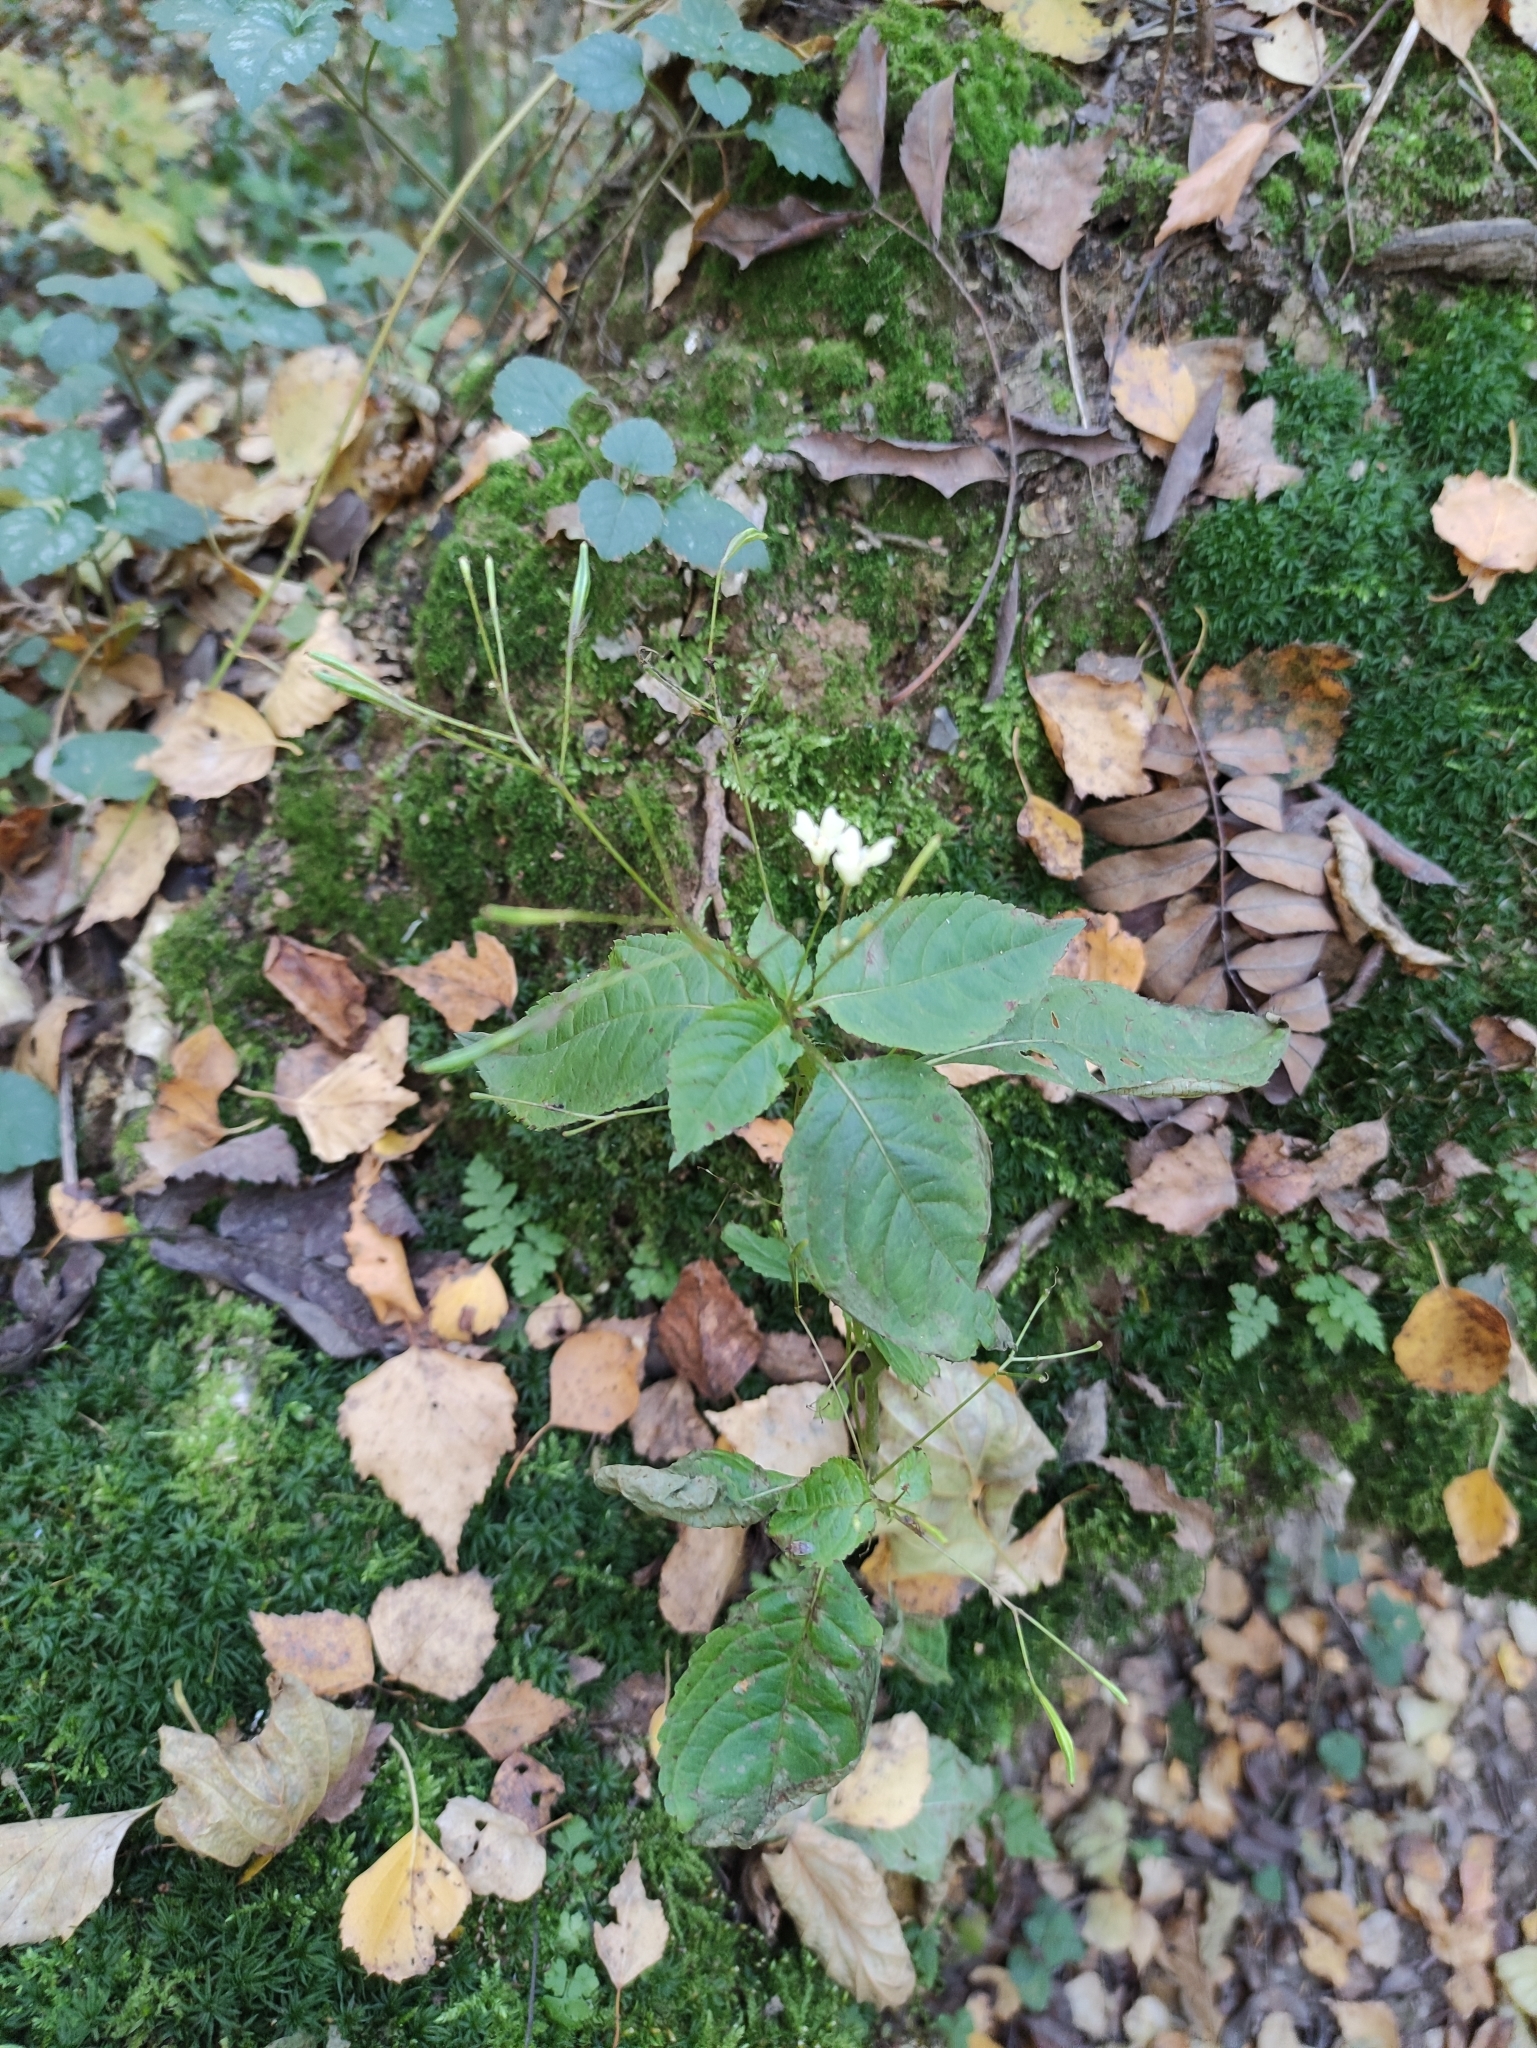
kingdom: Plantae
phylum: Tracheophyta
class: Magnoliopsida
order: Ericales
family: Balsaminaceae
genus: Impatiens
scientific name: Impatiens parviflora
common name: Small balsam
